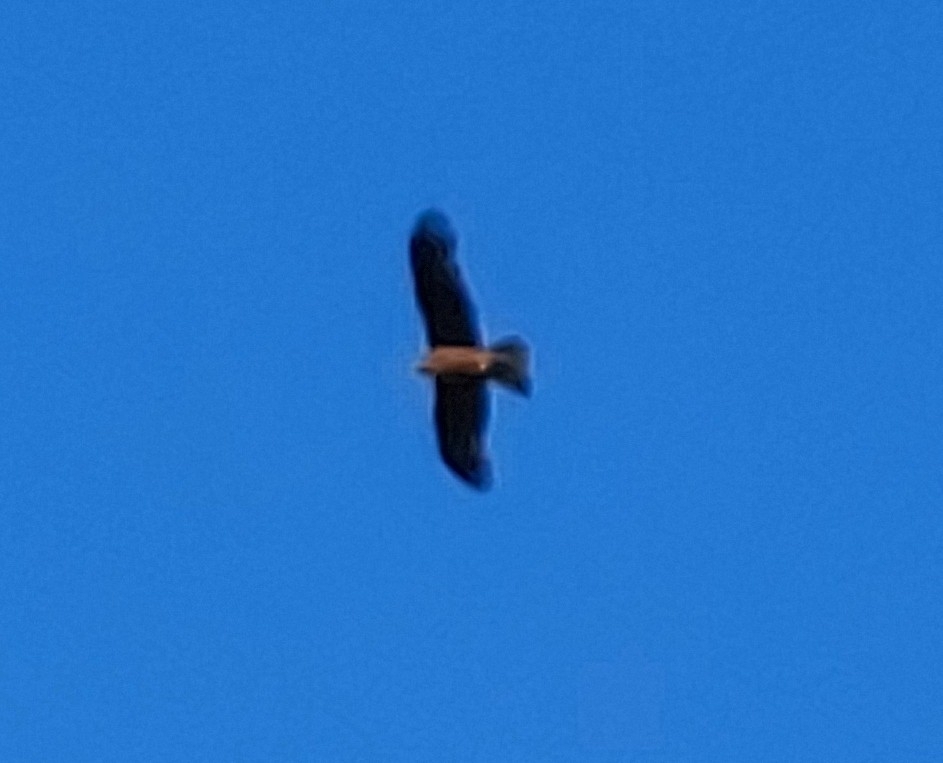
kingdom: Animalia
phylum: Chordata
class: Aves
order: Accipitriformes
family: Accipitridae
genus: Milvus
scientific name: Milvus migrans
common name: Black kite
